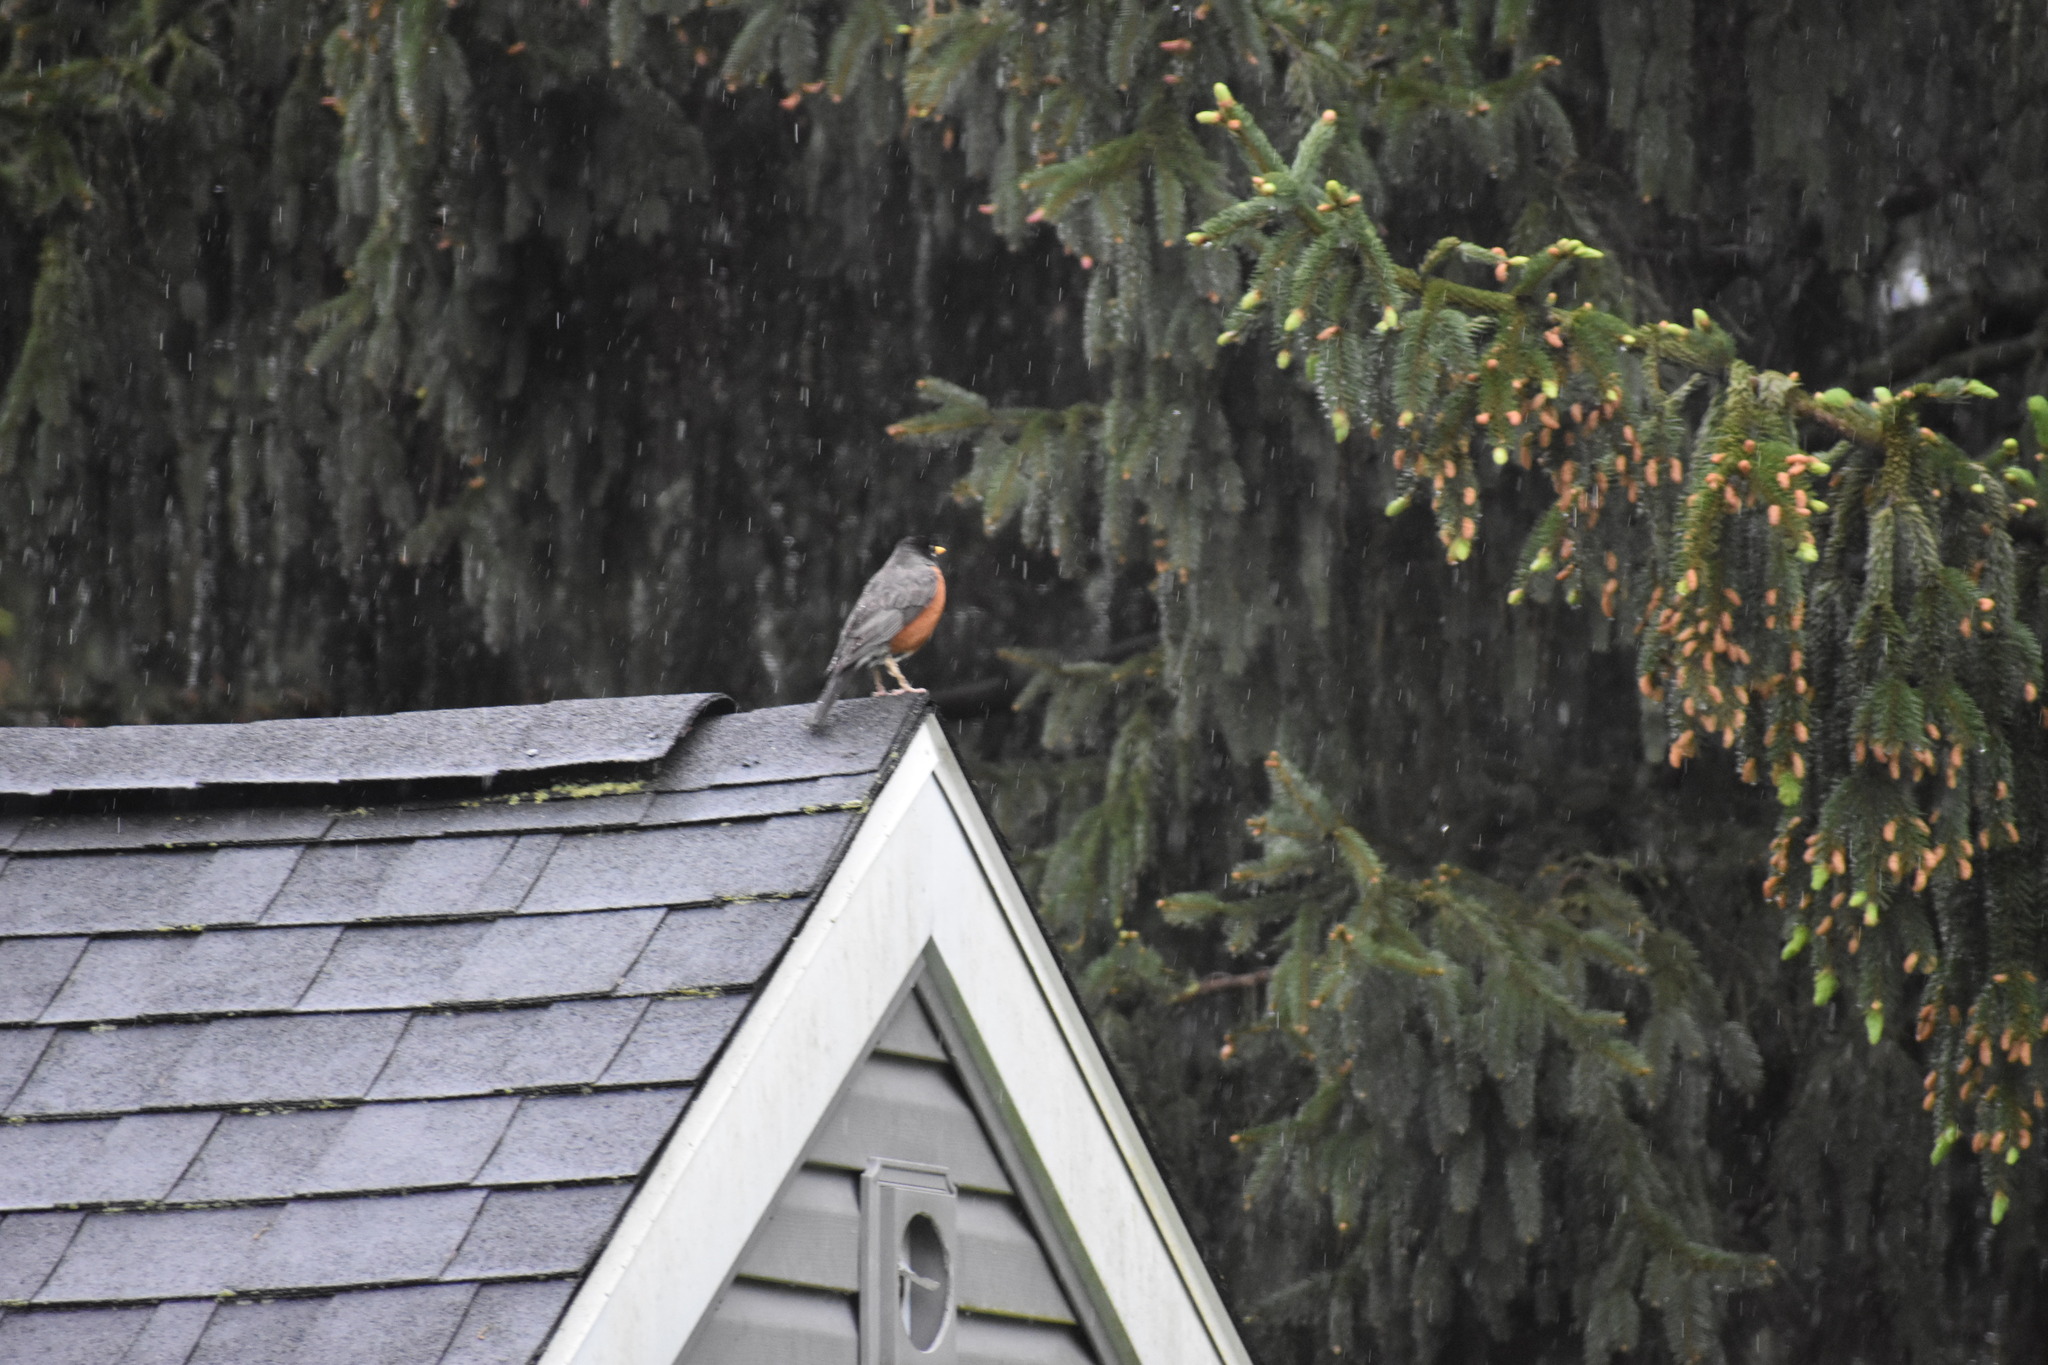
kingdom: Animalia
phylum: Chordata
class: Aves
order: Passeriformes
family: Turdidae
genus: Turdus
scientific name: Turdus migratorius
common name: American robin
